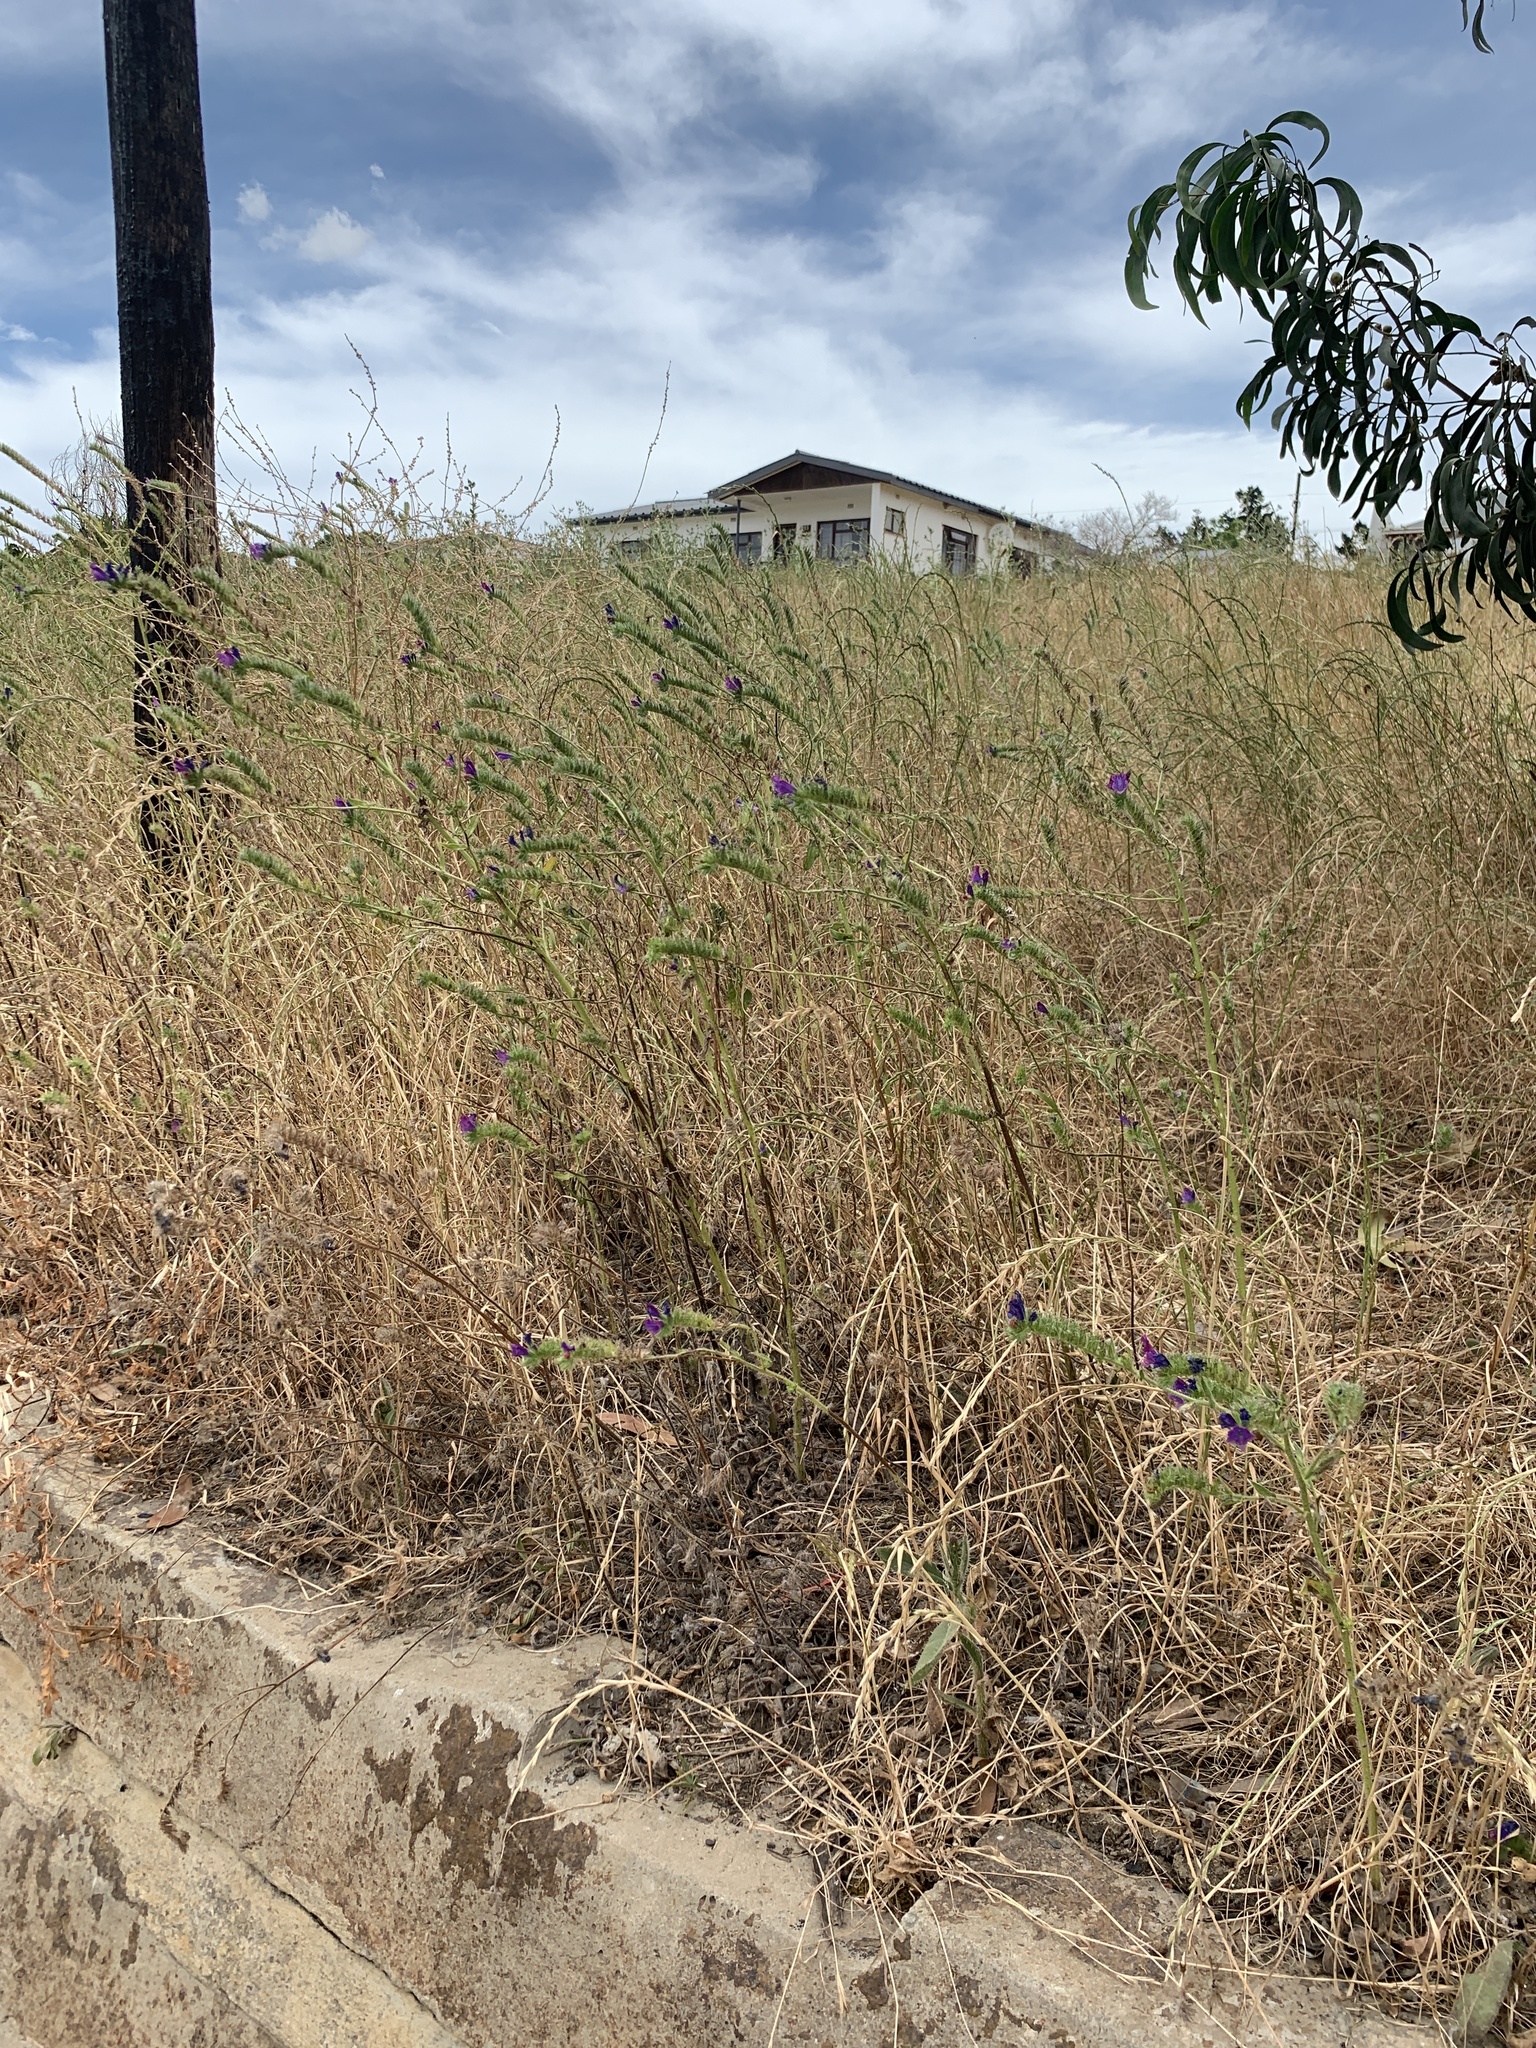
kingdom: Plantae
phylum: Tracheophyta
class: Magnoliopsida
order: Boraginales
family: Boraginaceae
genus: Echium
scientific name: Echium plantagineum
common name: Purple viper's-bugloss
